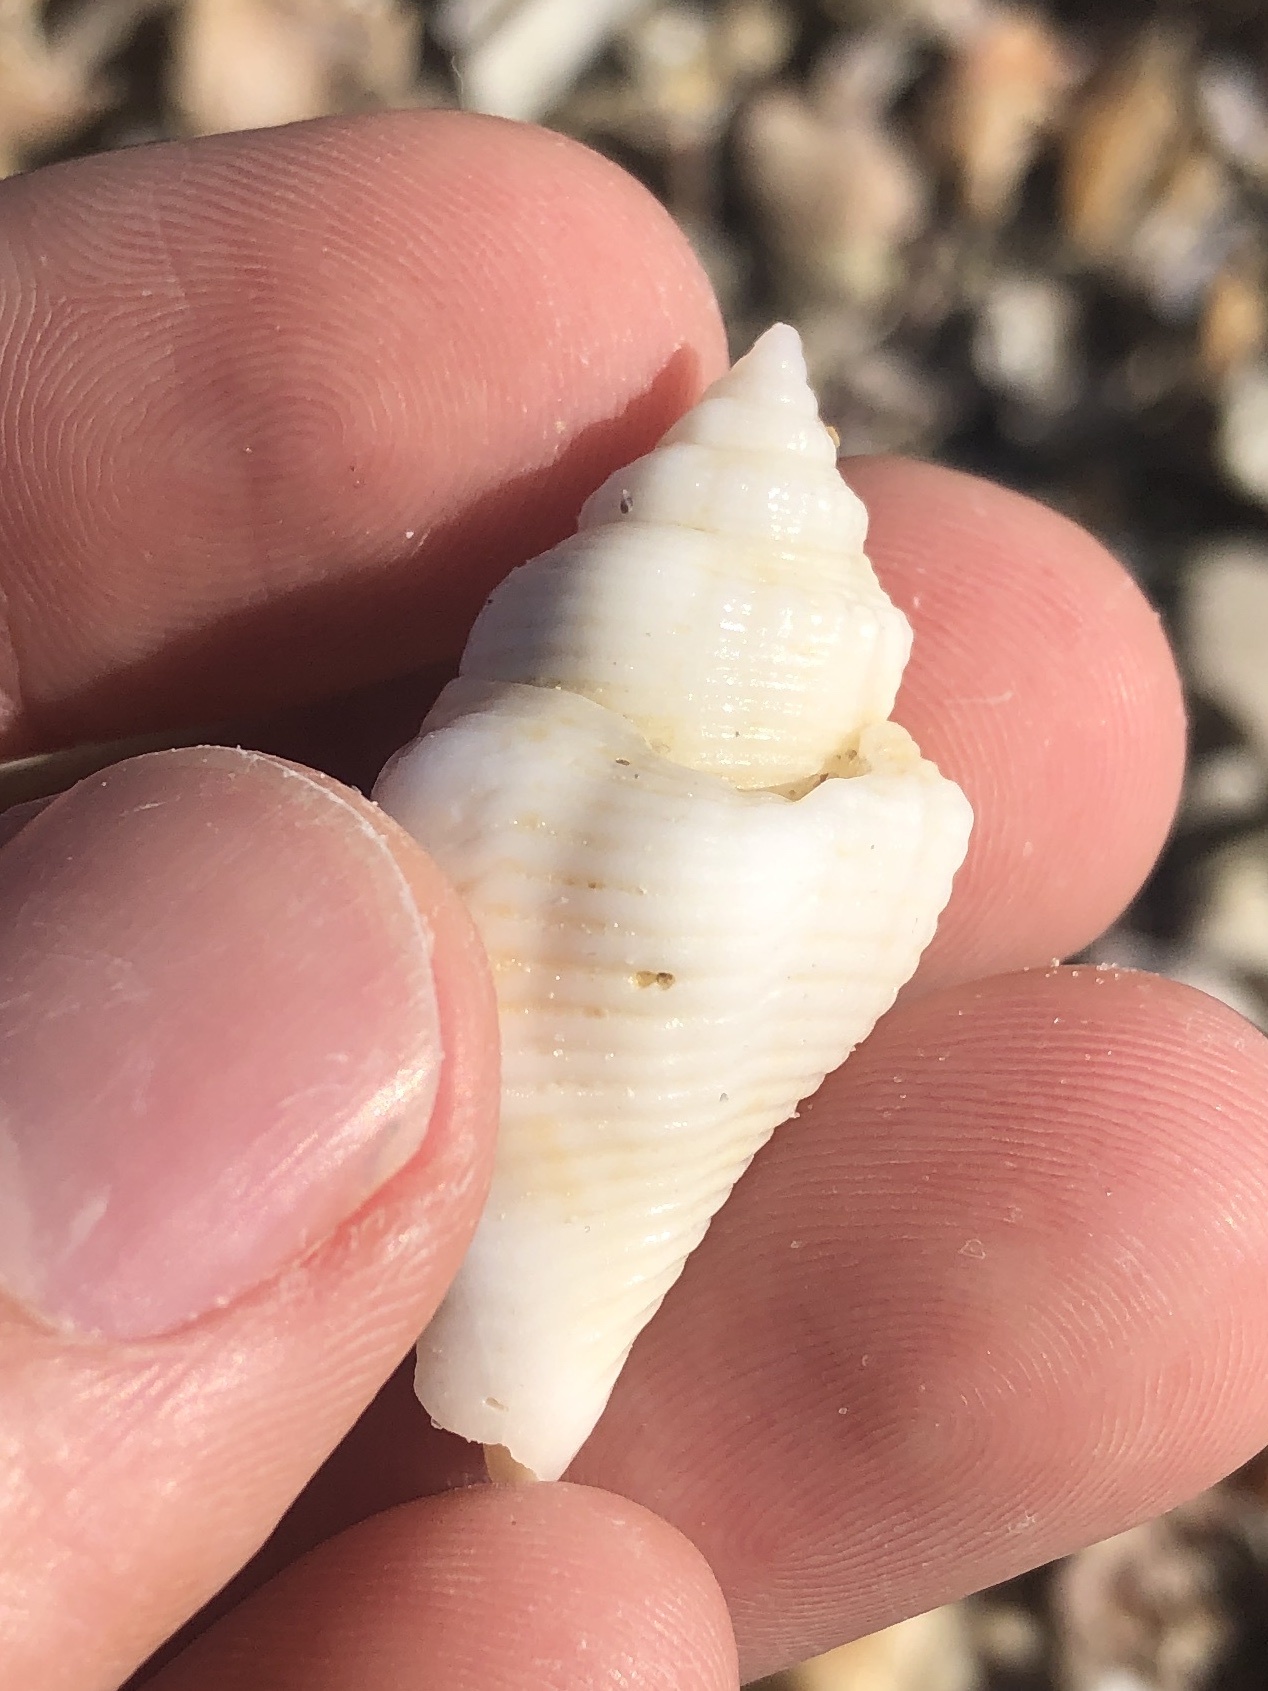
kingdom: Animalia
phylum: Mollusca
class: Gastropoda
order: Littorinimorpha
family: Strombidae
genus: Strombus
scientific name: Strombus alatus
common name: Florida fighting conch
